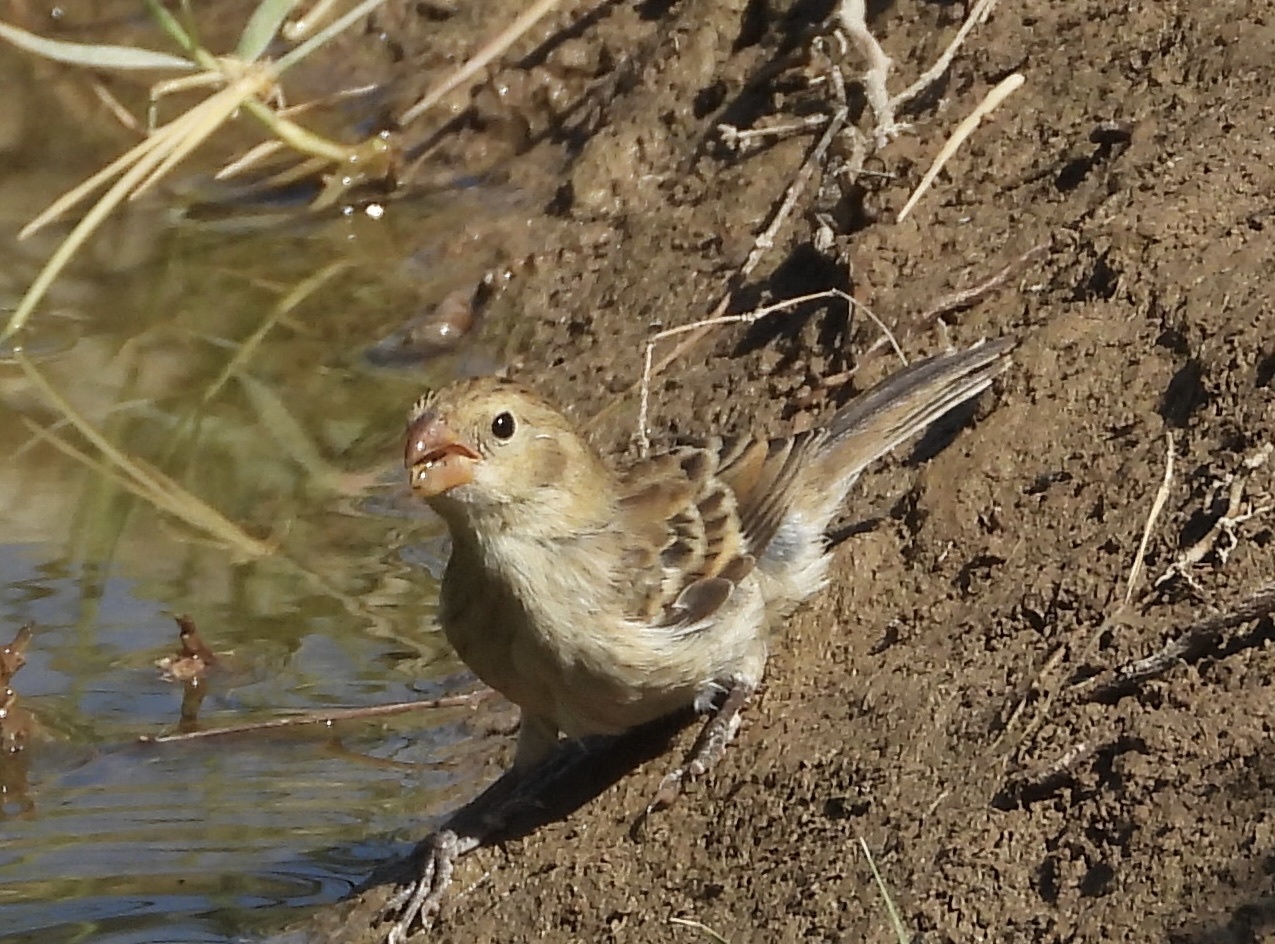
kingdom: Animalia
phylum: Chordata
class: Aves
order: Passeriformes
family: Thraupidae
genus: Sporophila
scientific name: Sporophila telasco
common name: Chestnut-throated seedeater
